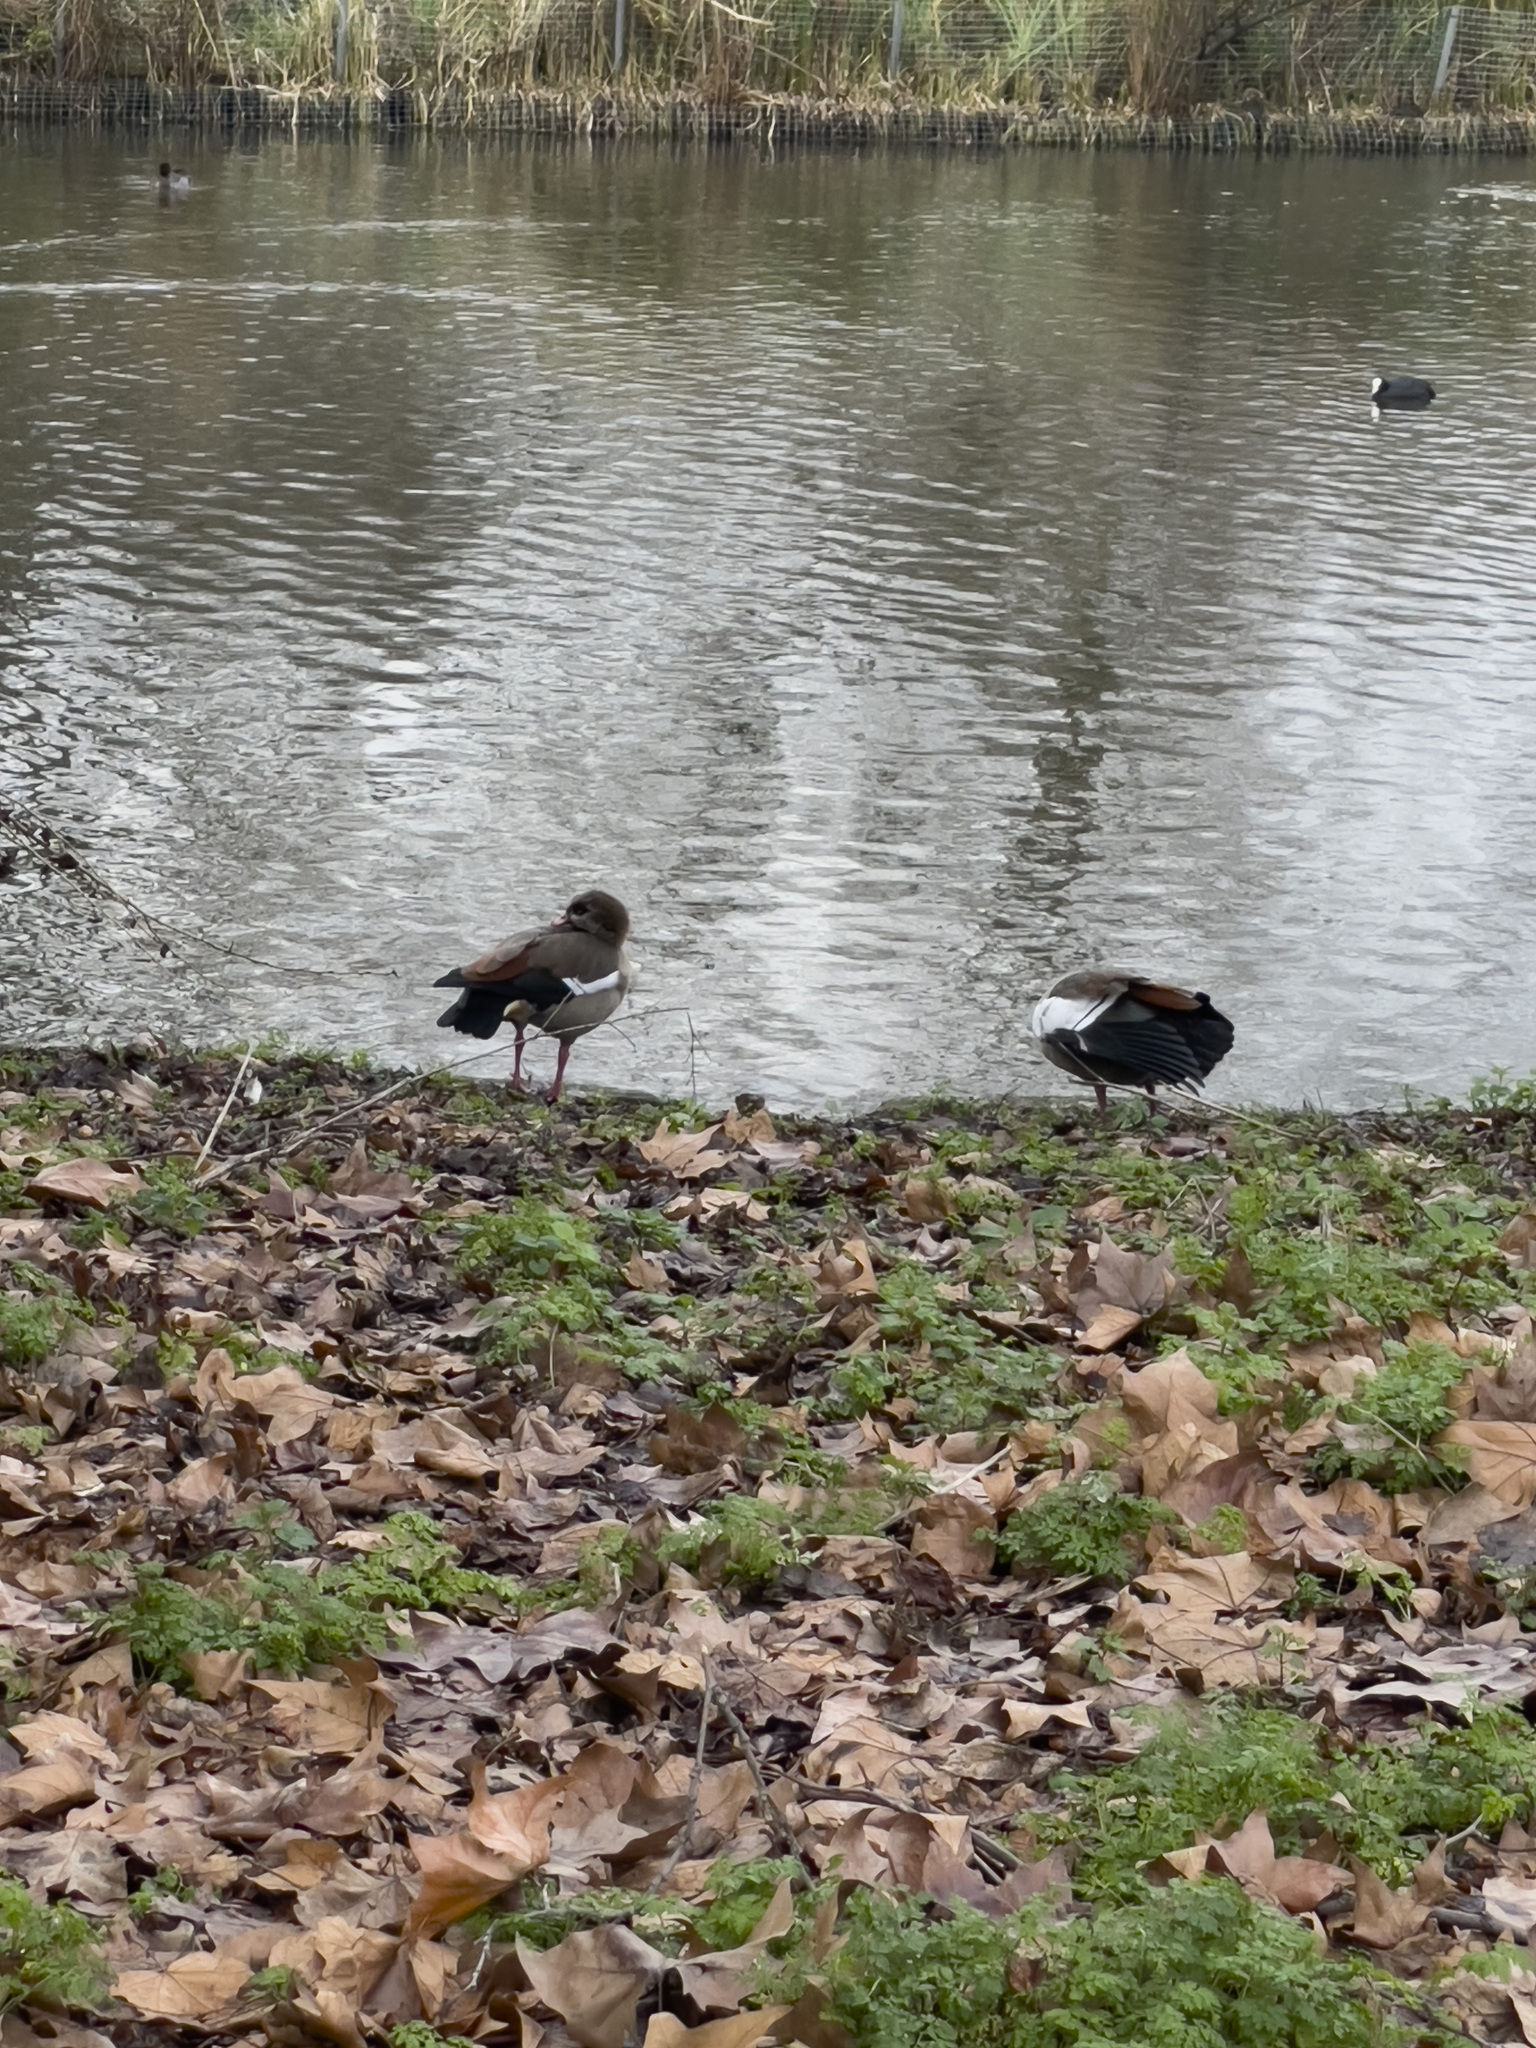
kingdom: Animalia
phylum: Chordata
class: Aves
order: Anseriformes
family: Anatidae
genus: Alopochen
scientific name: Alopochen aegyptiaca
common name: Egyptian goose
